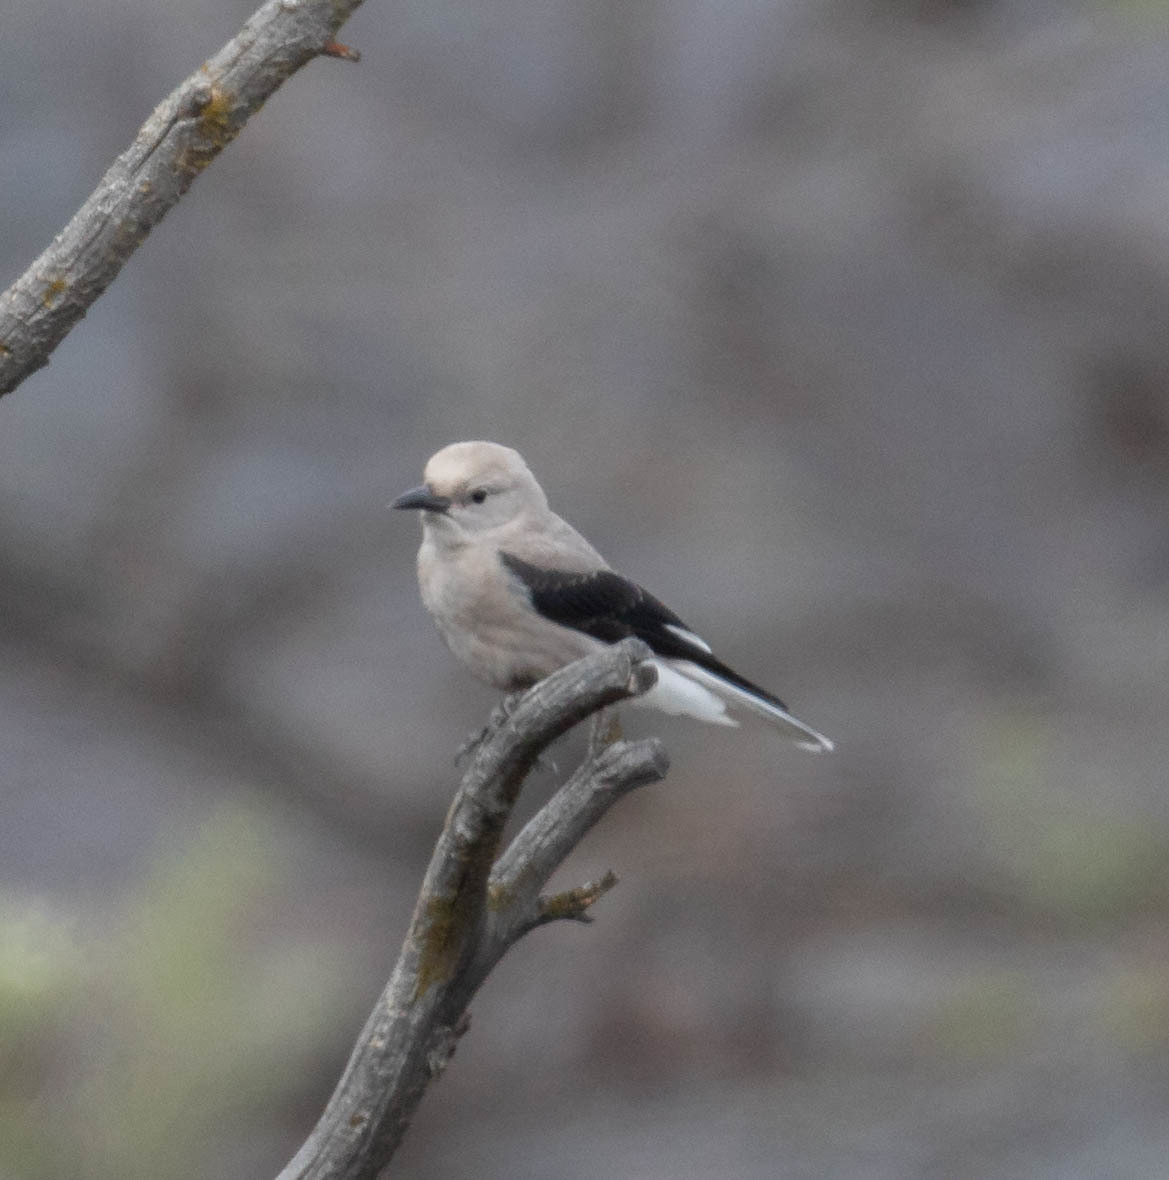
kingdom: Animalia
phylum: Chordata
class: Aves
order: Passeriformes
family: Corvidae
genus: Nucifraga
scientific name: Nucifraga columbiana
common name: Clark's nutcracker
